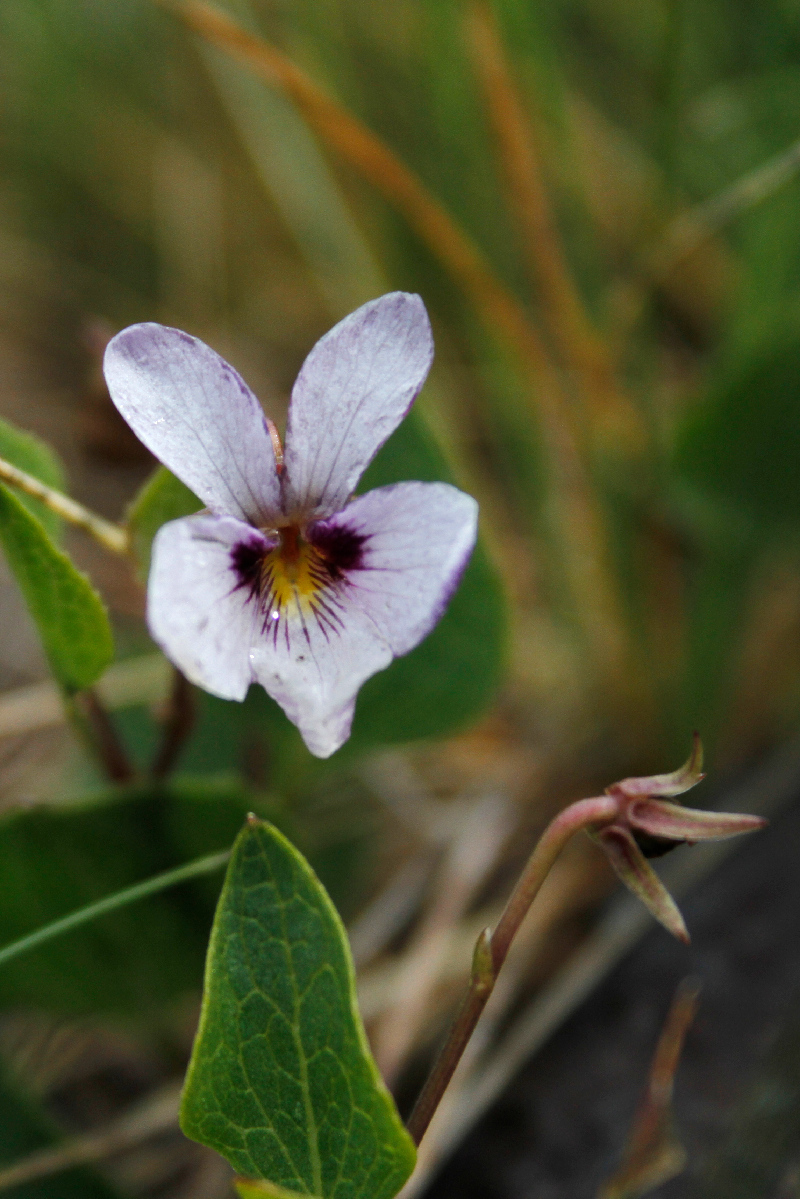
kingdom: Plantae
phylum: Tracheophyta
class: Magnoliopsida
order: Malpighiales
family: Violaceae
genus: Viola
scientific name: Viola cuneata
